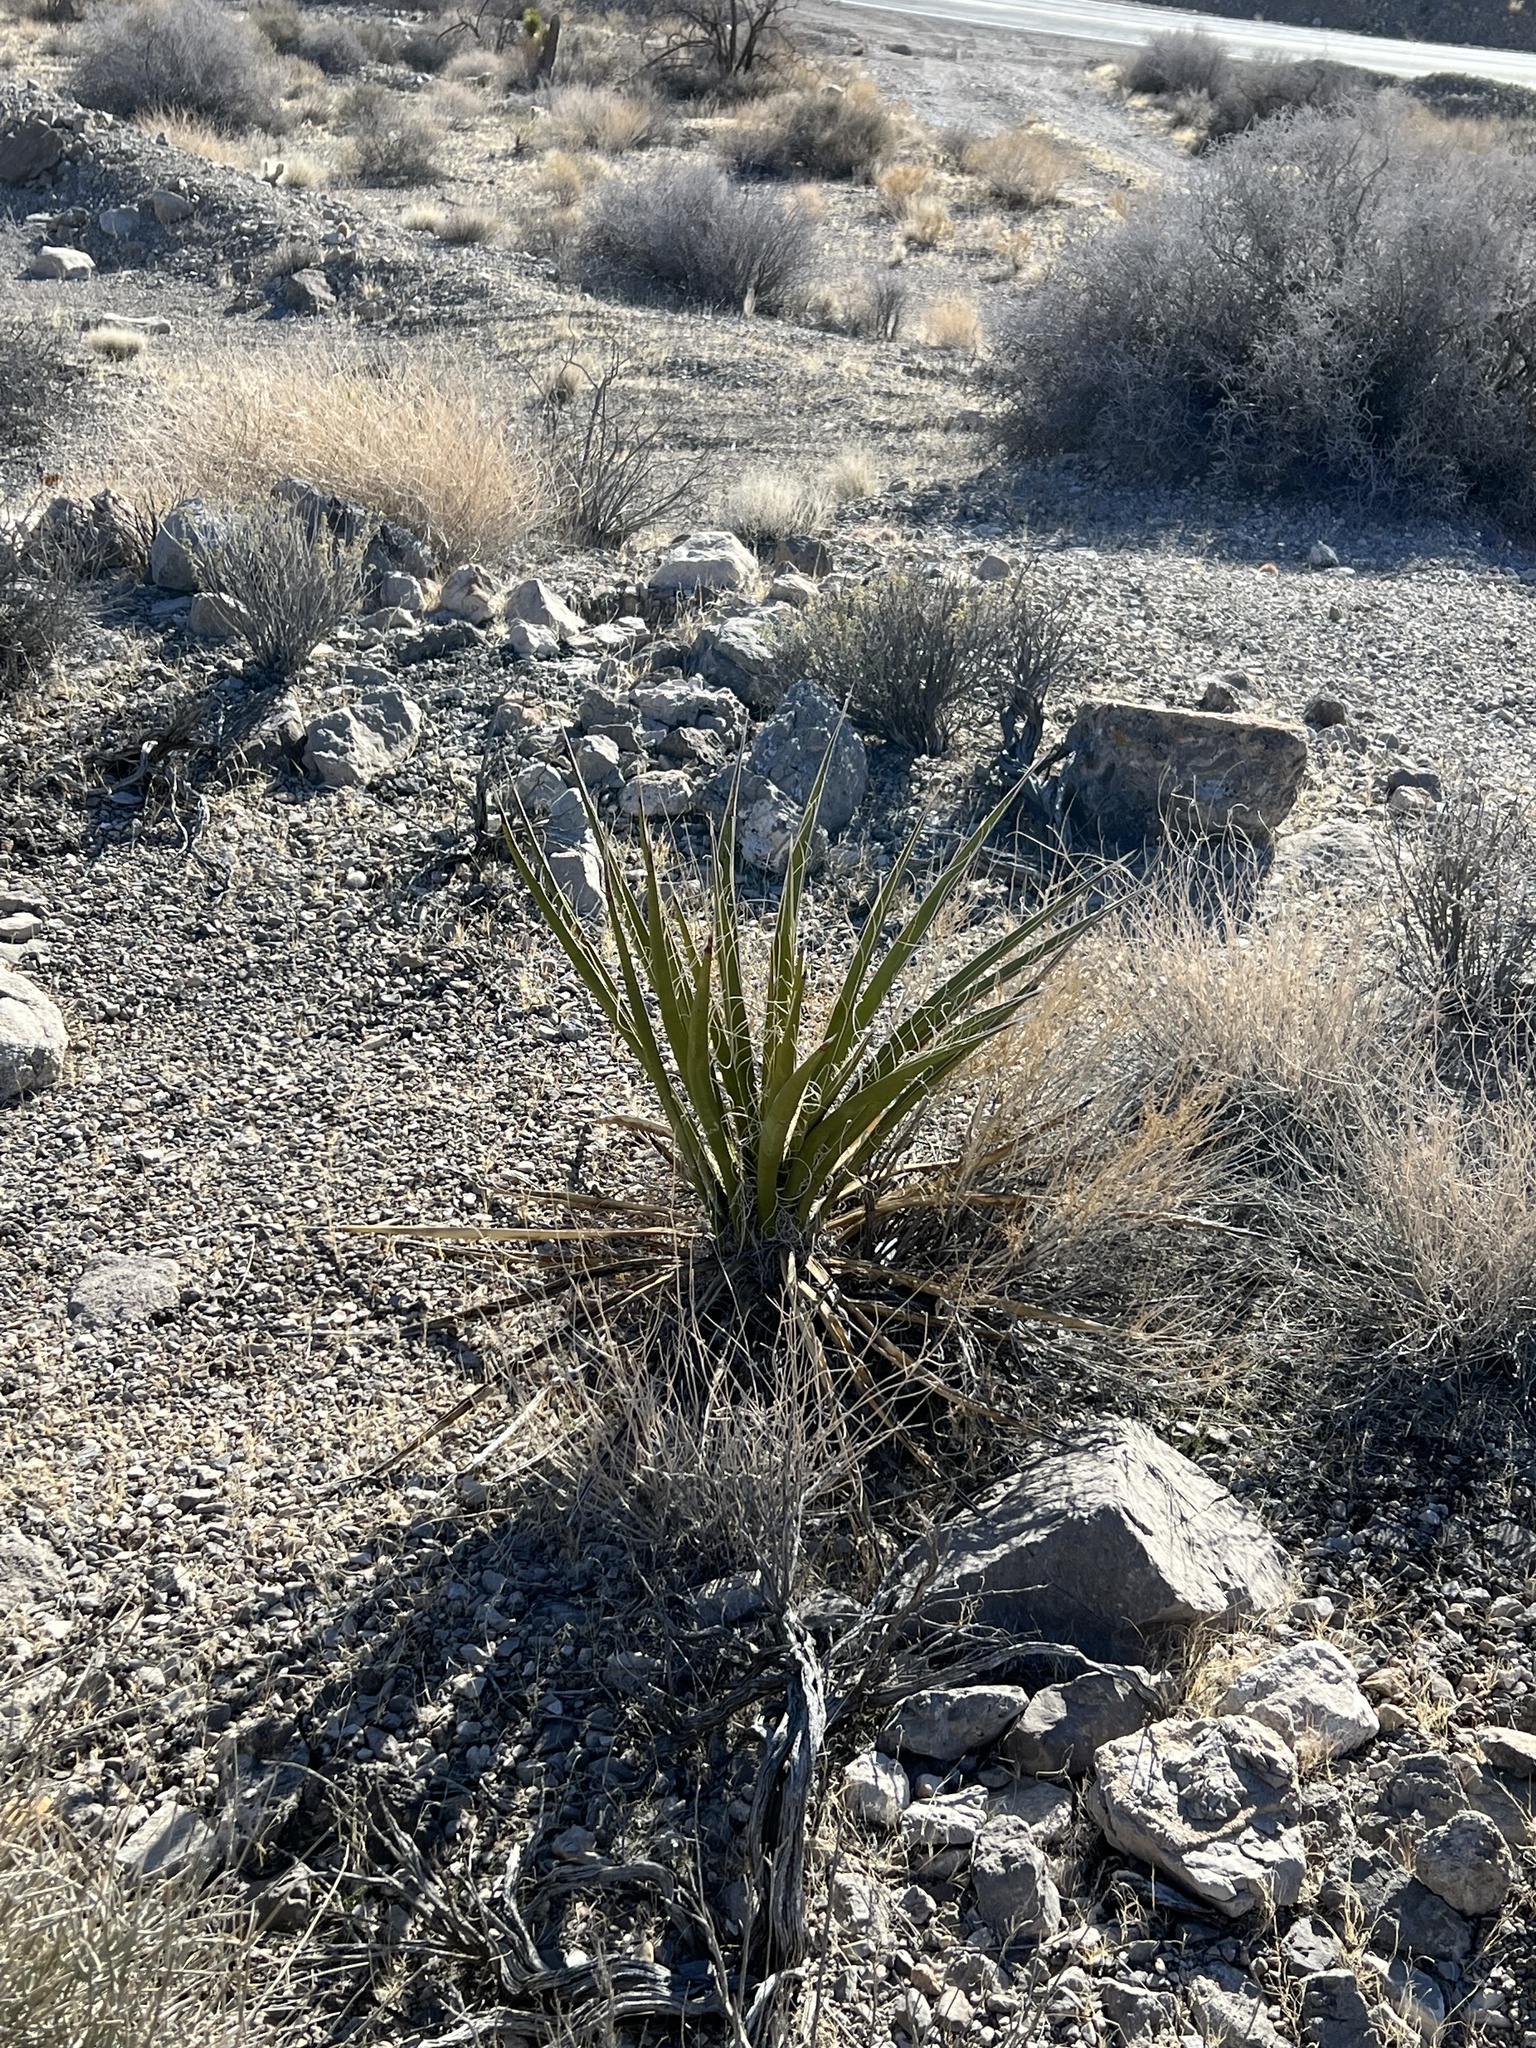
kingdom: Plantae
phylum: Tracheophyta
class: Liliopsida
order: Asparagales
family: Asparagaceae
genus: Yucca
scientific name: Yucca schidigera
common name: Mojave yucca
